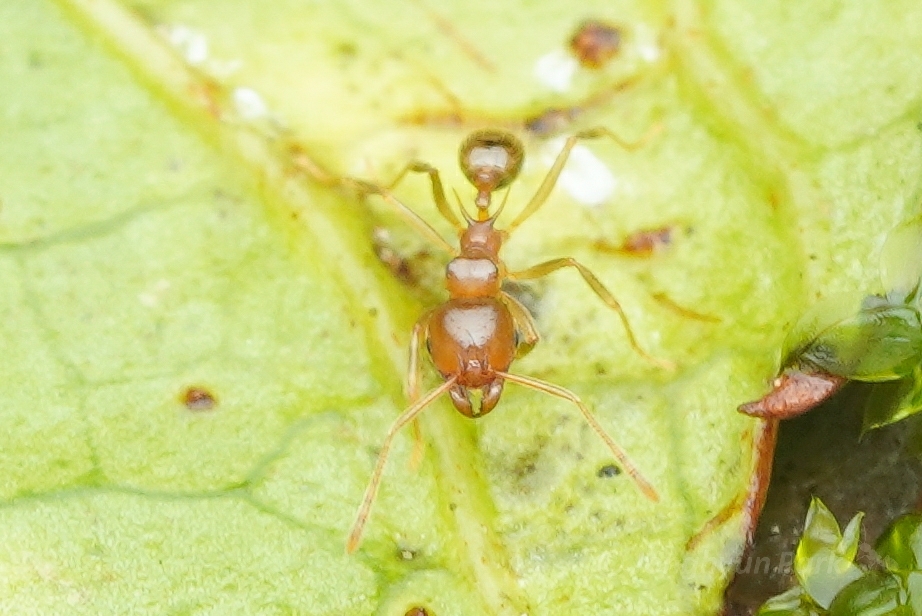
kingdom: Animalia
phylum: Arthropoda
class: Insecta
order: Hymenoptera
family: Formicidae
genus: Lophomyrmex
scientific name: Lophomyrmex longicornis
